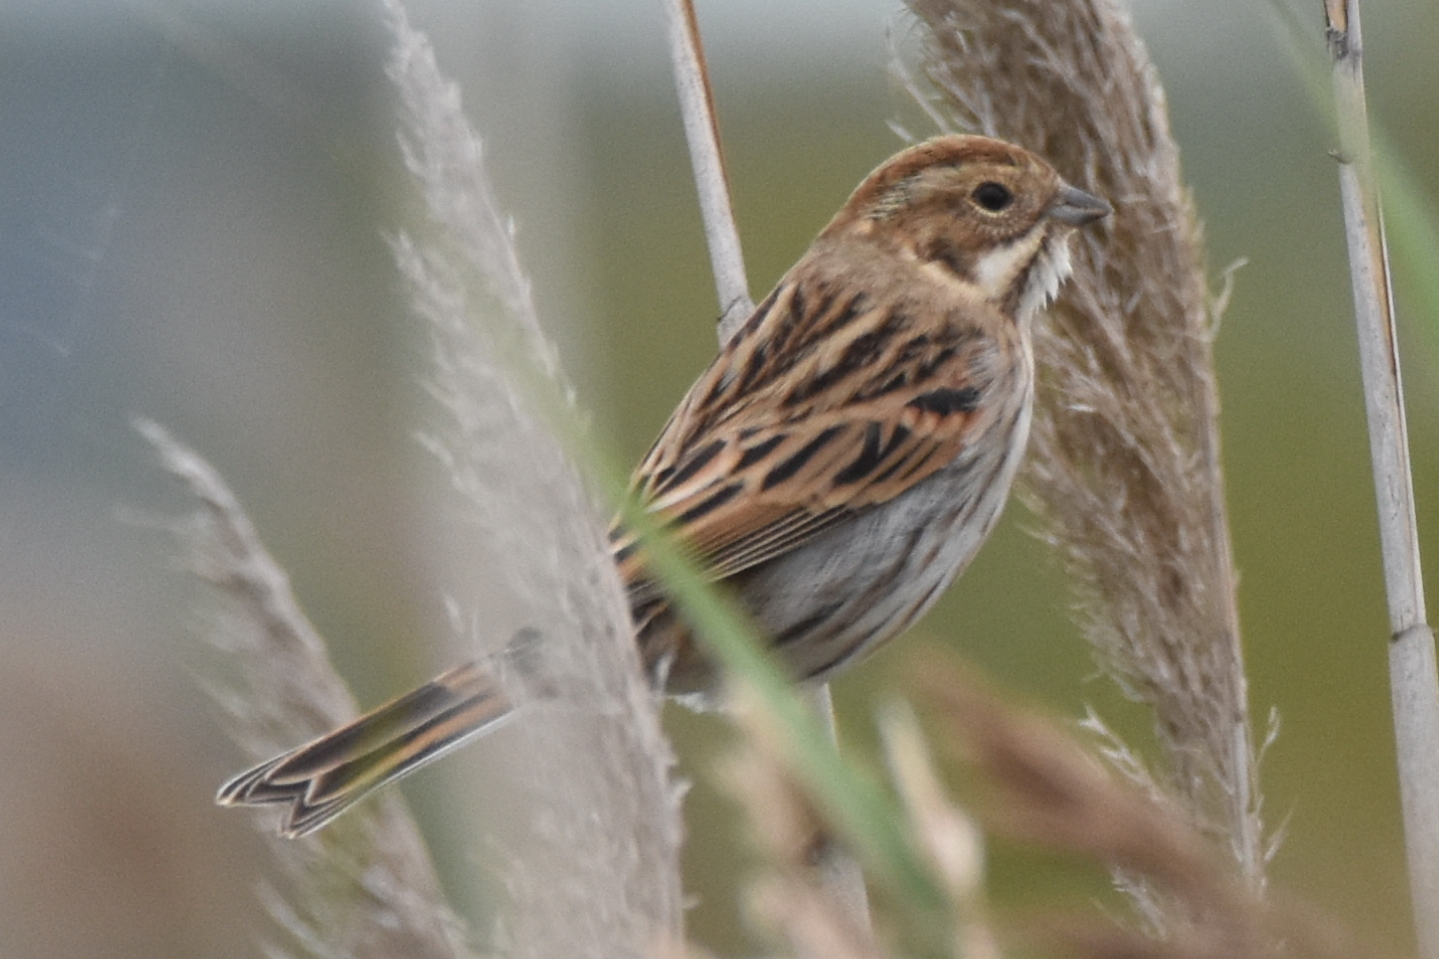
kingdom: Animalia
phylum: Chordata
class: Aves
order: Passeriformes
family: Emberizidae
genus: Emberiza
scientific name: Emberiza schoeniclus
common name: Reed bunting
